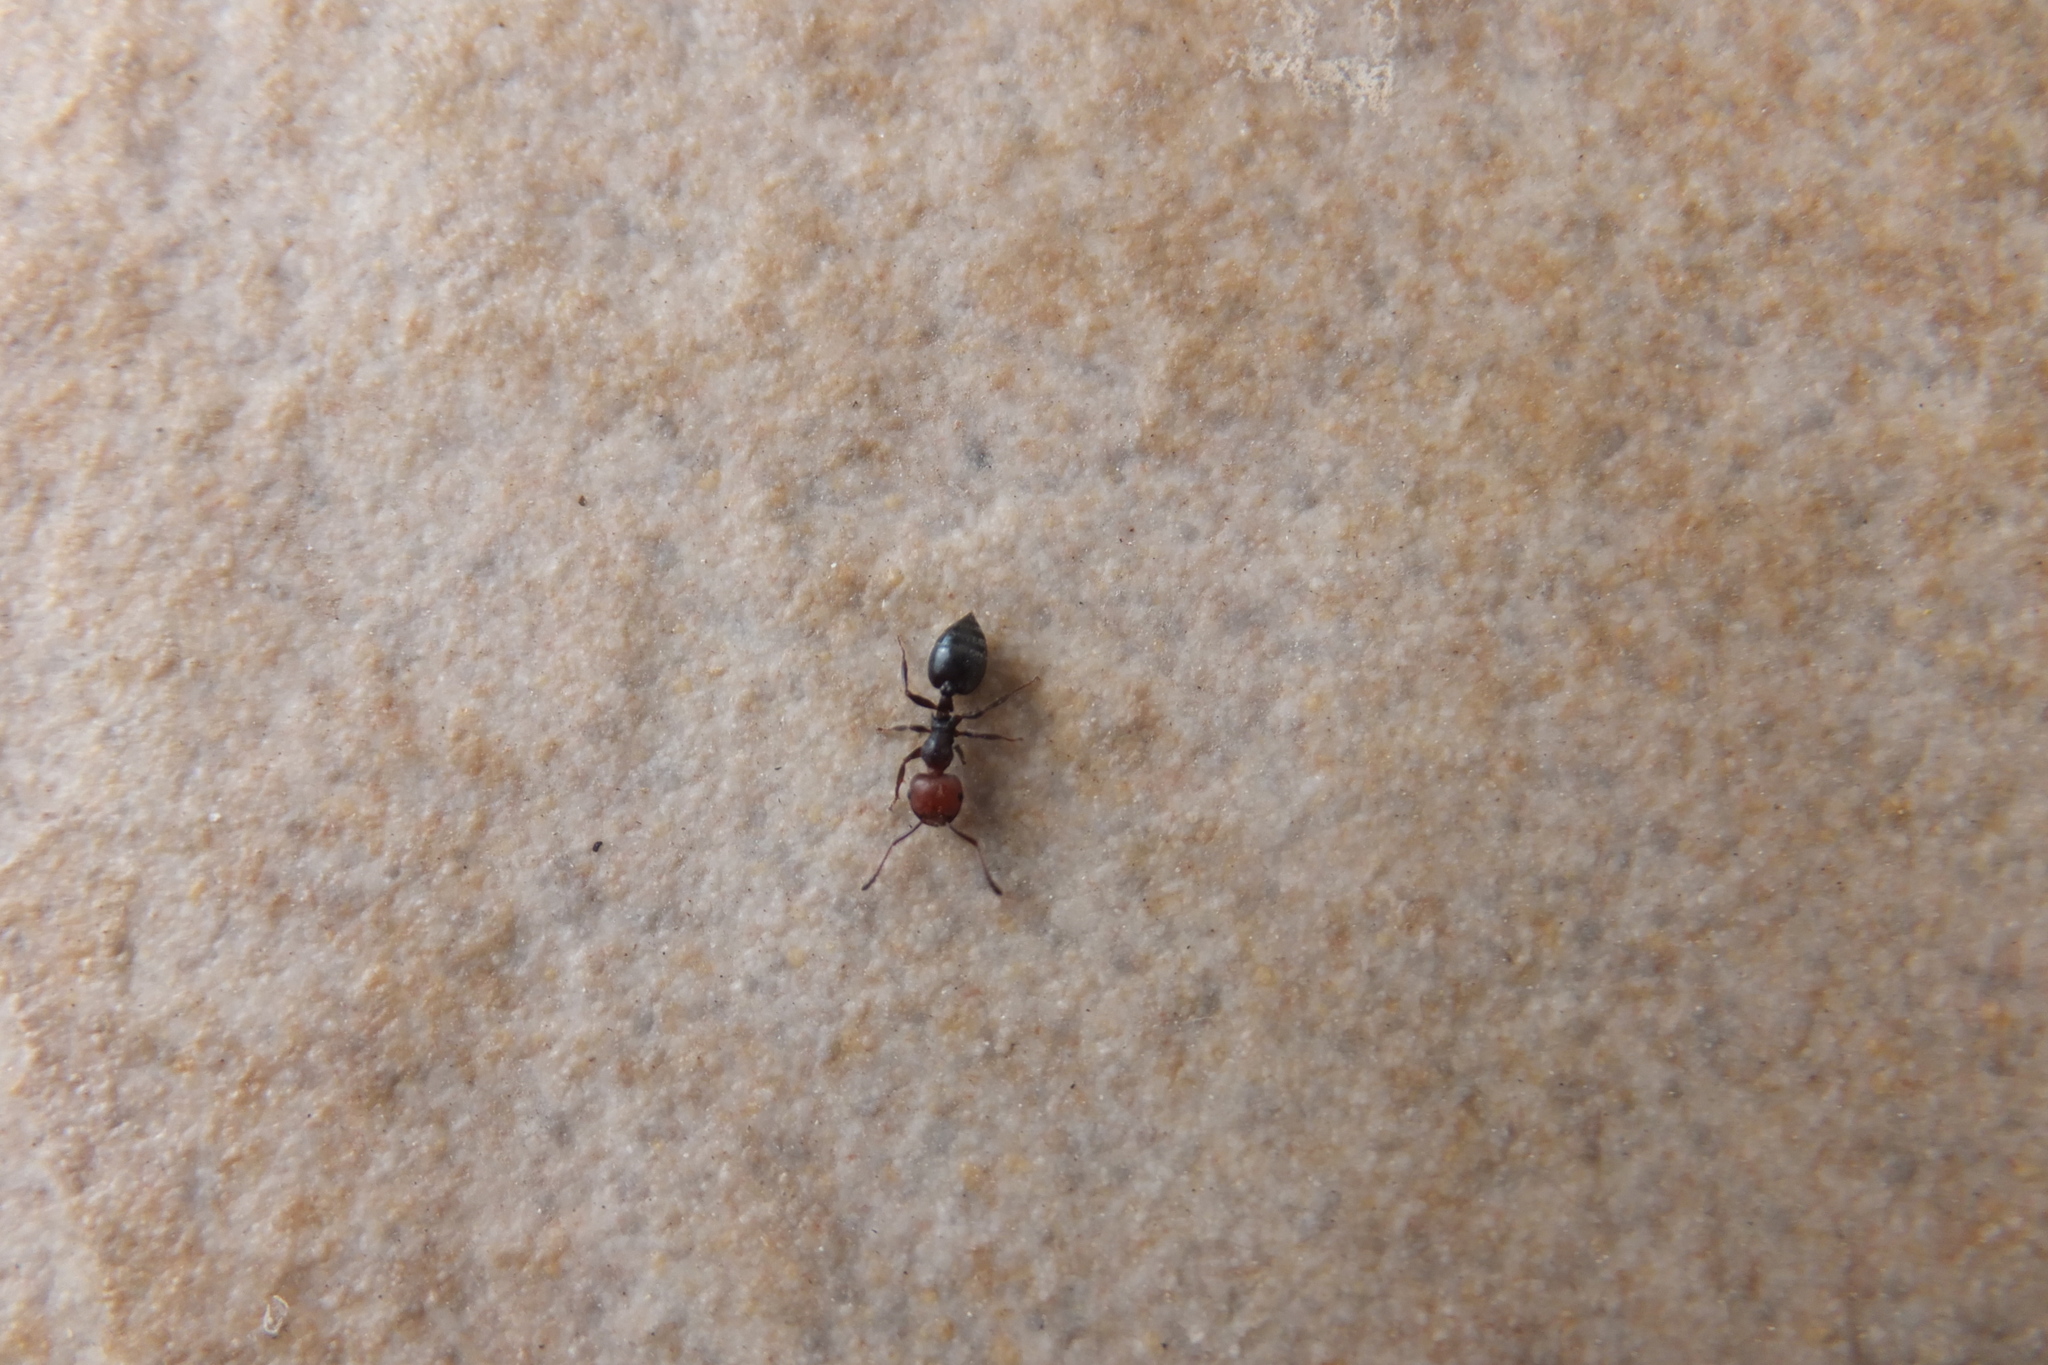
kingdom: Animalia
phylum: Arthropoda
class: Insecta
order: Hymenoptera
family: Formicidae
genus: Crematogaster
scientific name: Crematogaster scutellaris
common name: Fourmi du liège
